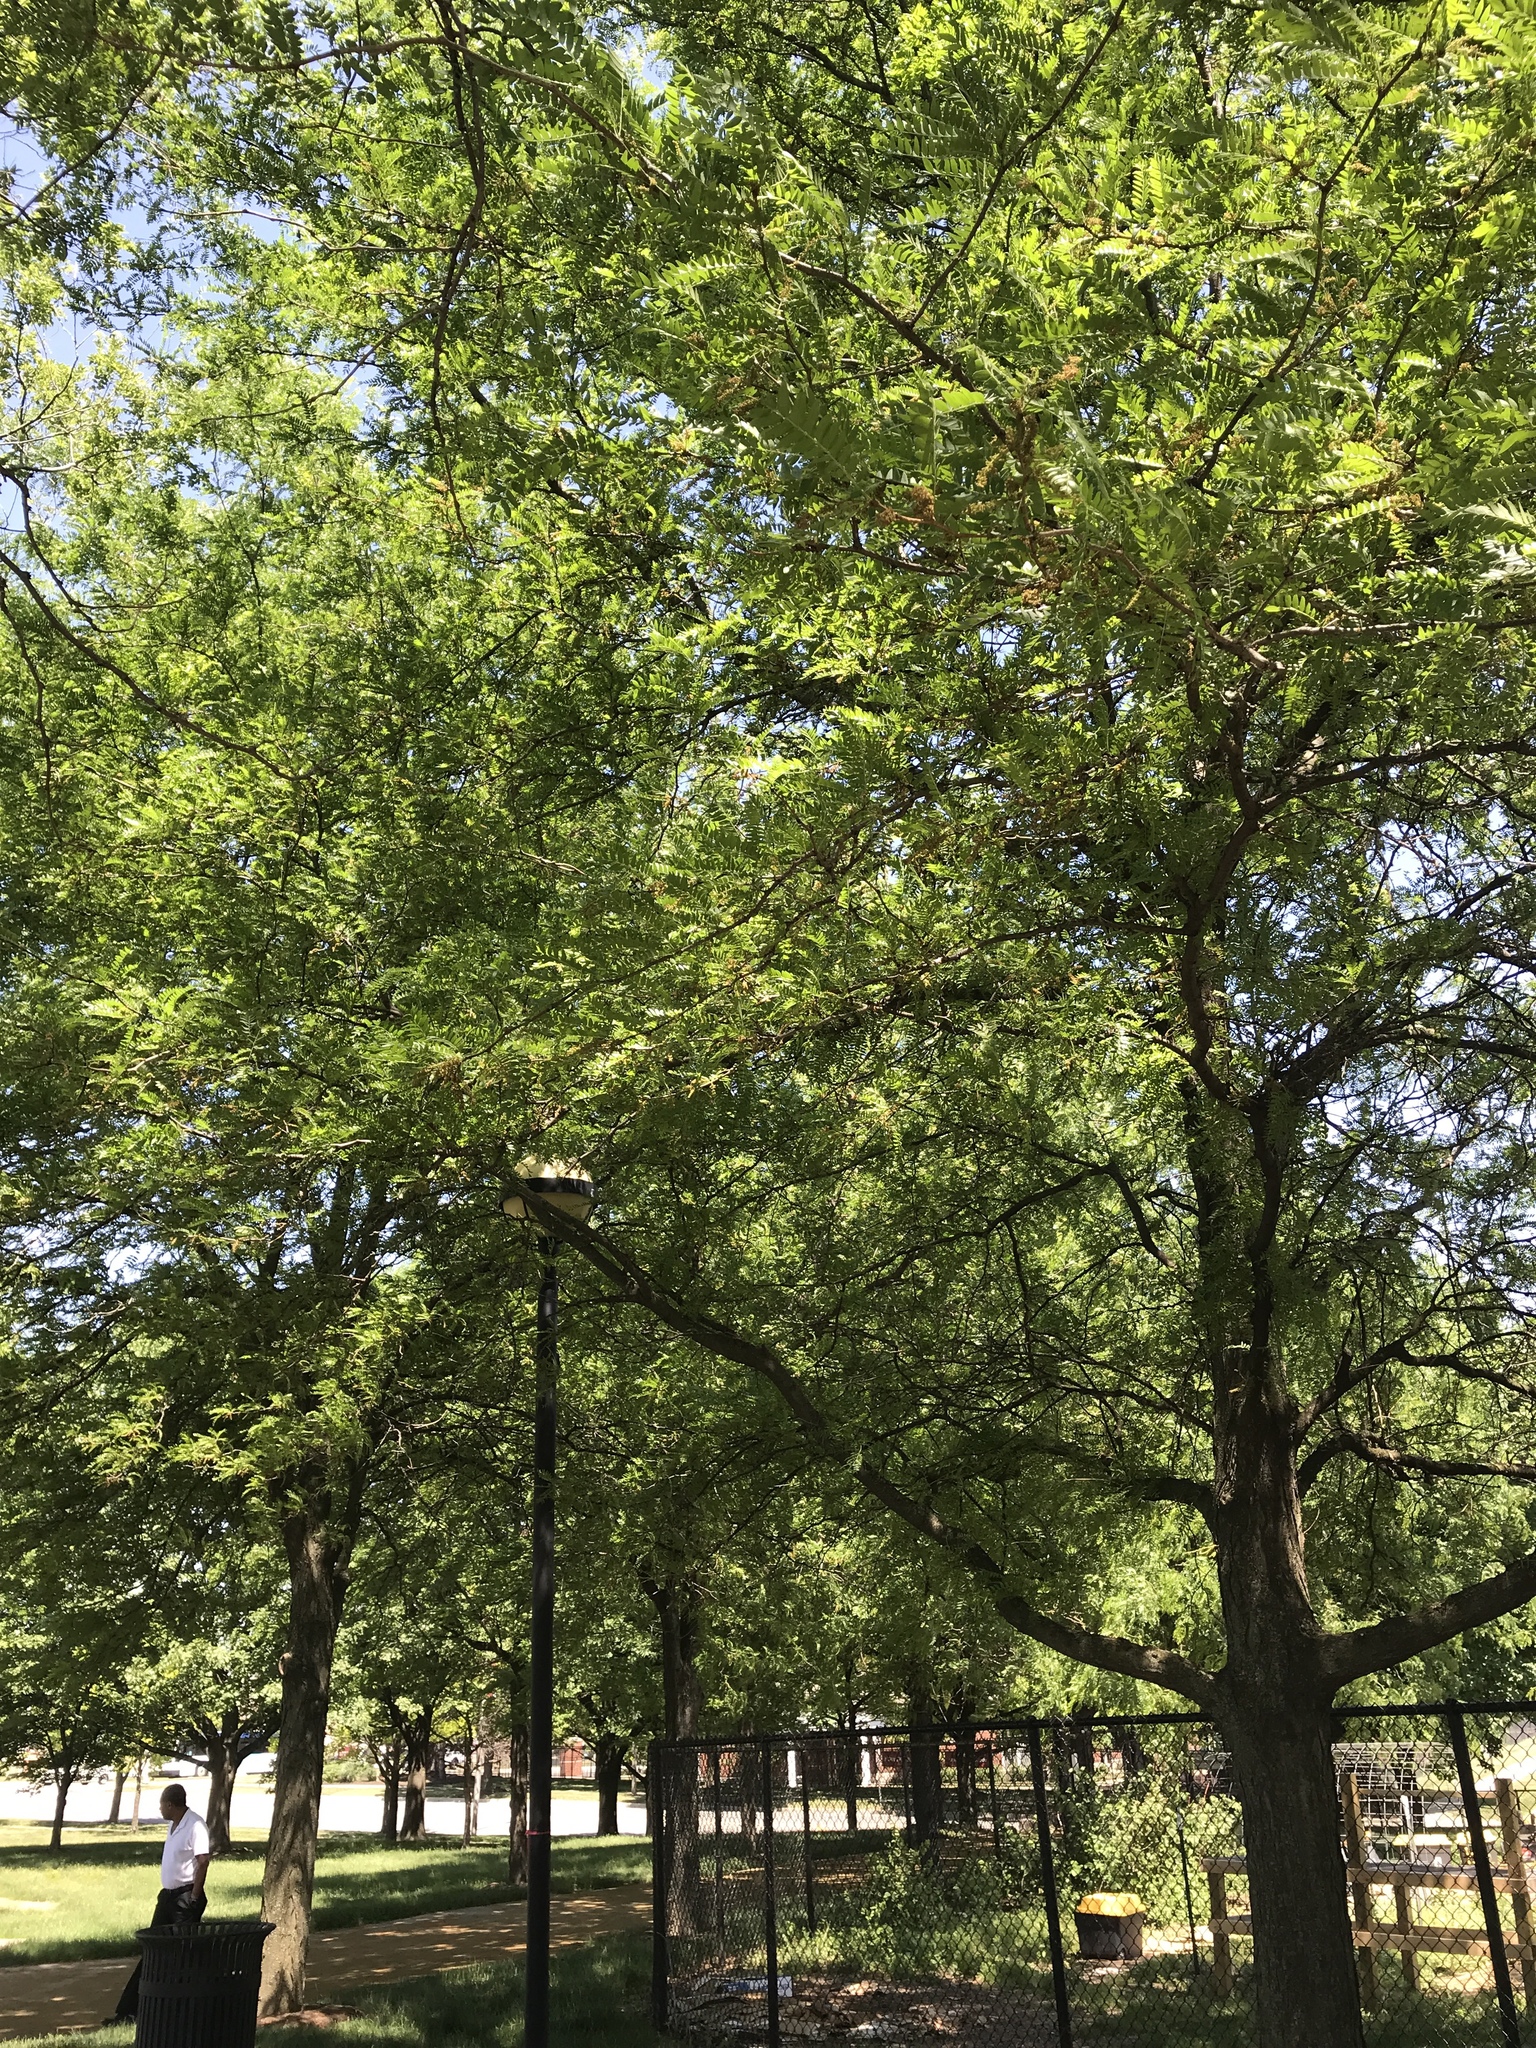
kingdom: Plantae
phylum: Tracheophyta
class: Magnoliopsida
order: Fabales
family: Fabaceae
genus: Gleditsia
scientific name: Gleditsia triacanthos
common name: Common honeylocust
